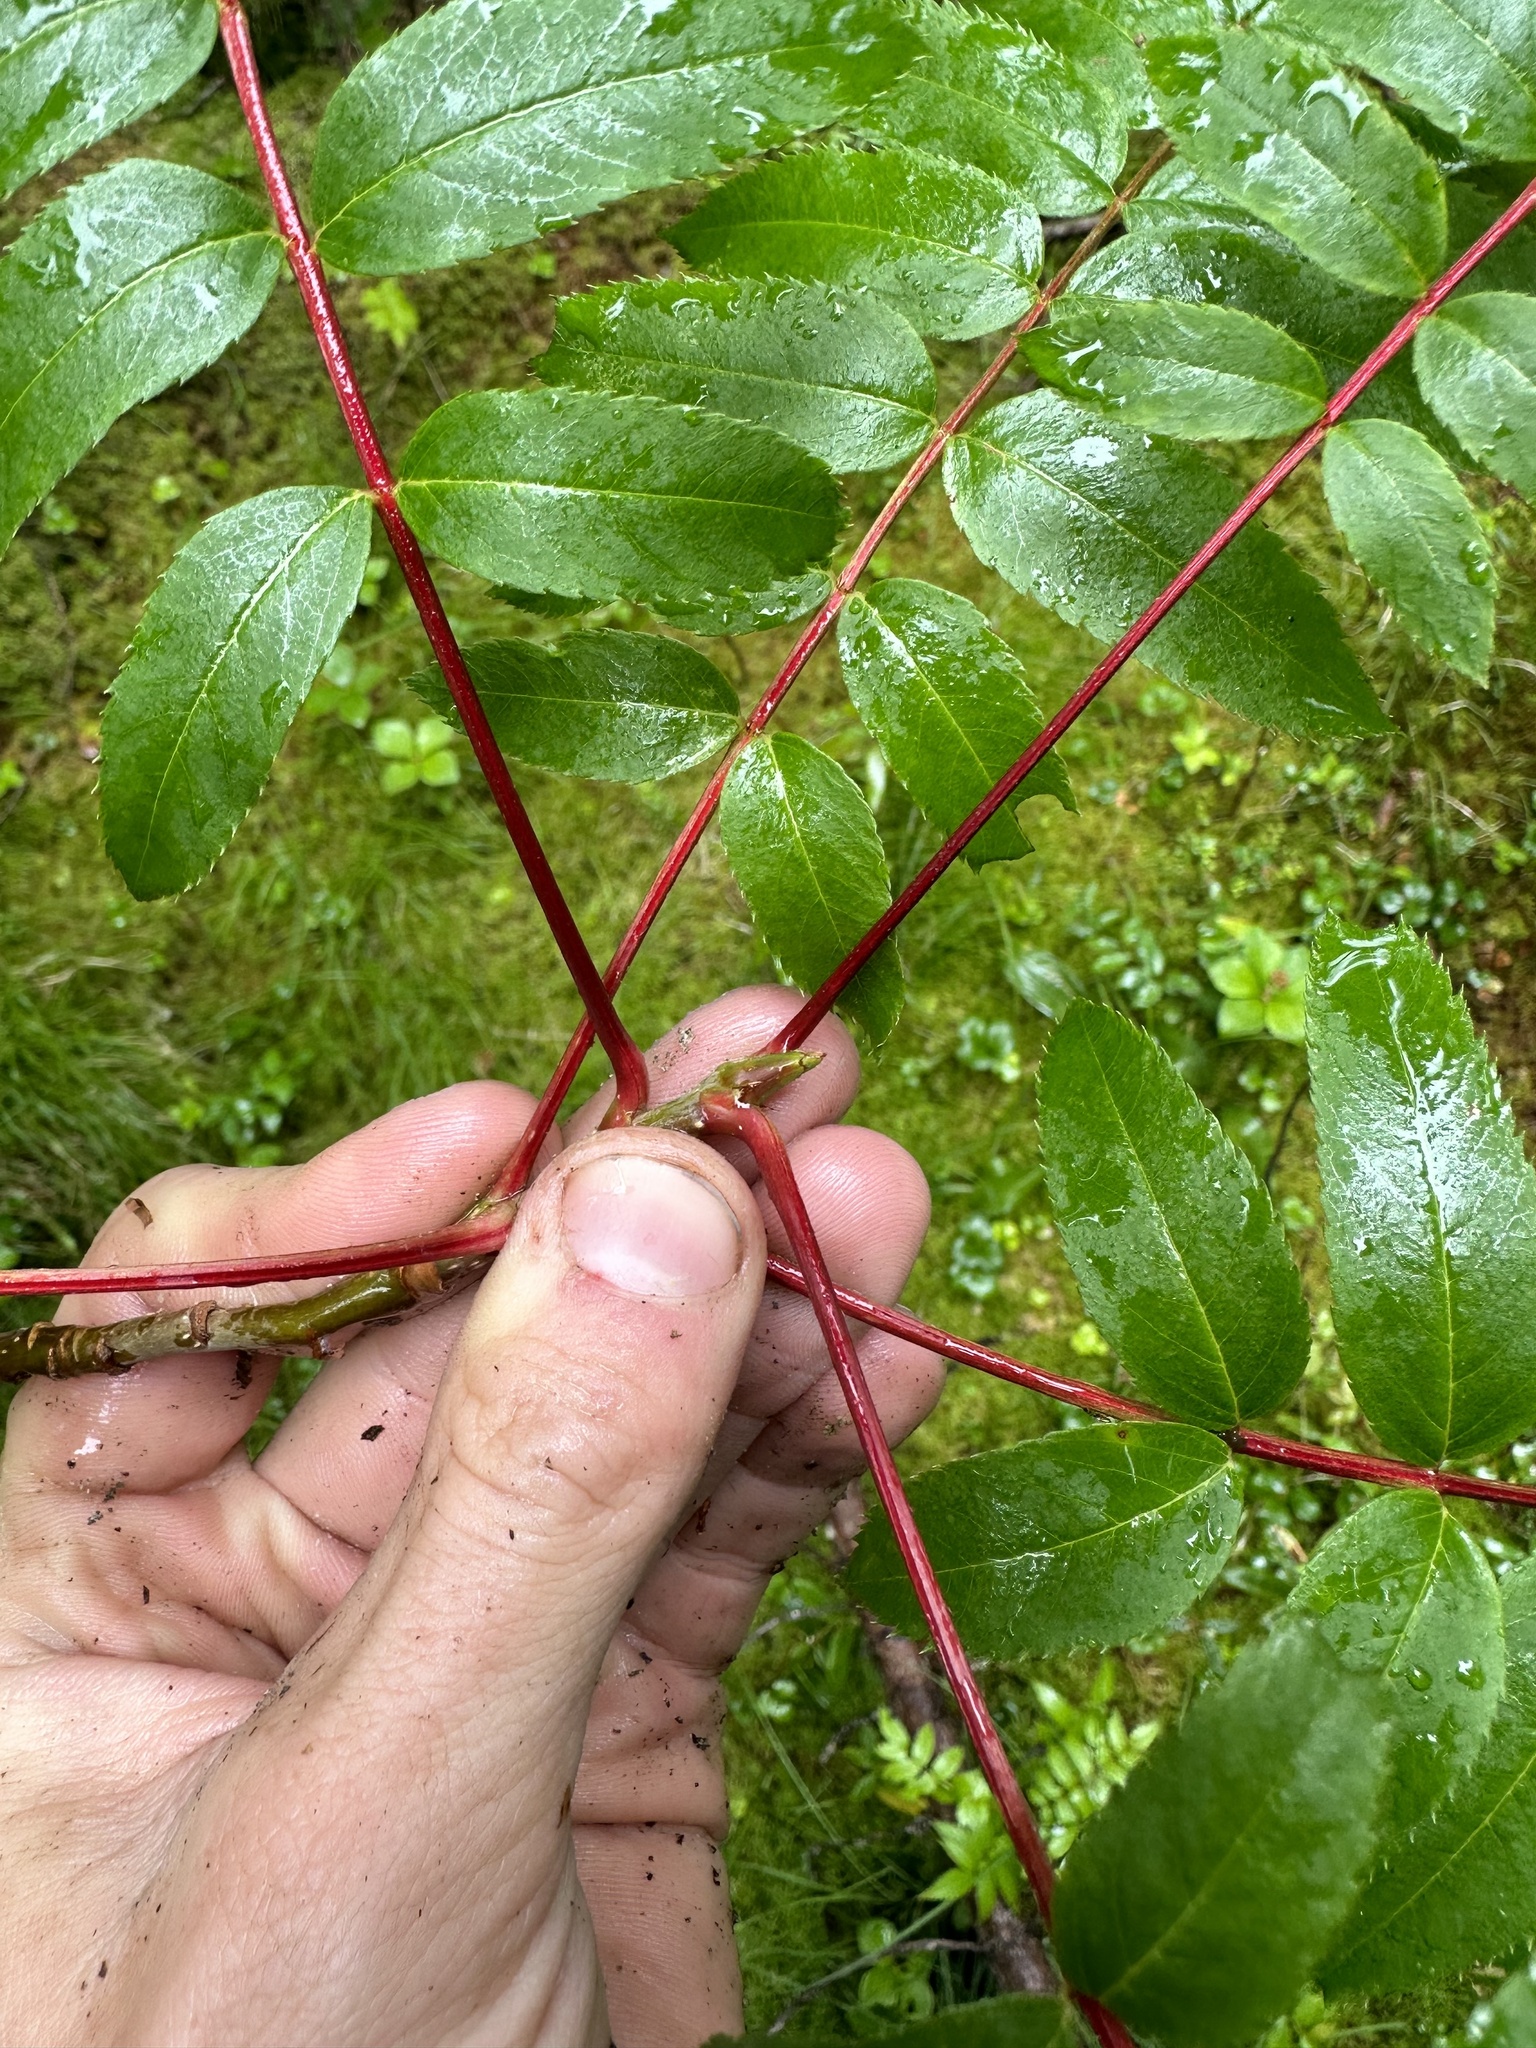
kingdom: Plantae
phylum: Tracheophyta
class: Magnoliopsida
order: Rosales
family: Rosaceae
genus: Sorbus
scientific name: Sorbus americana
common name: American mountain-ash
